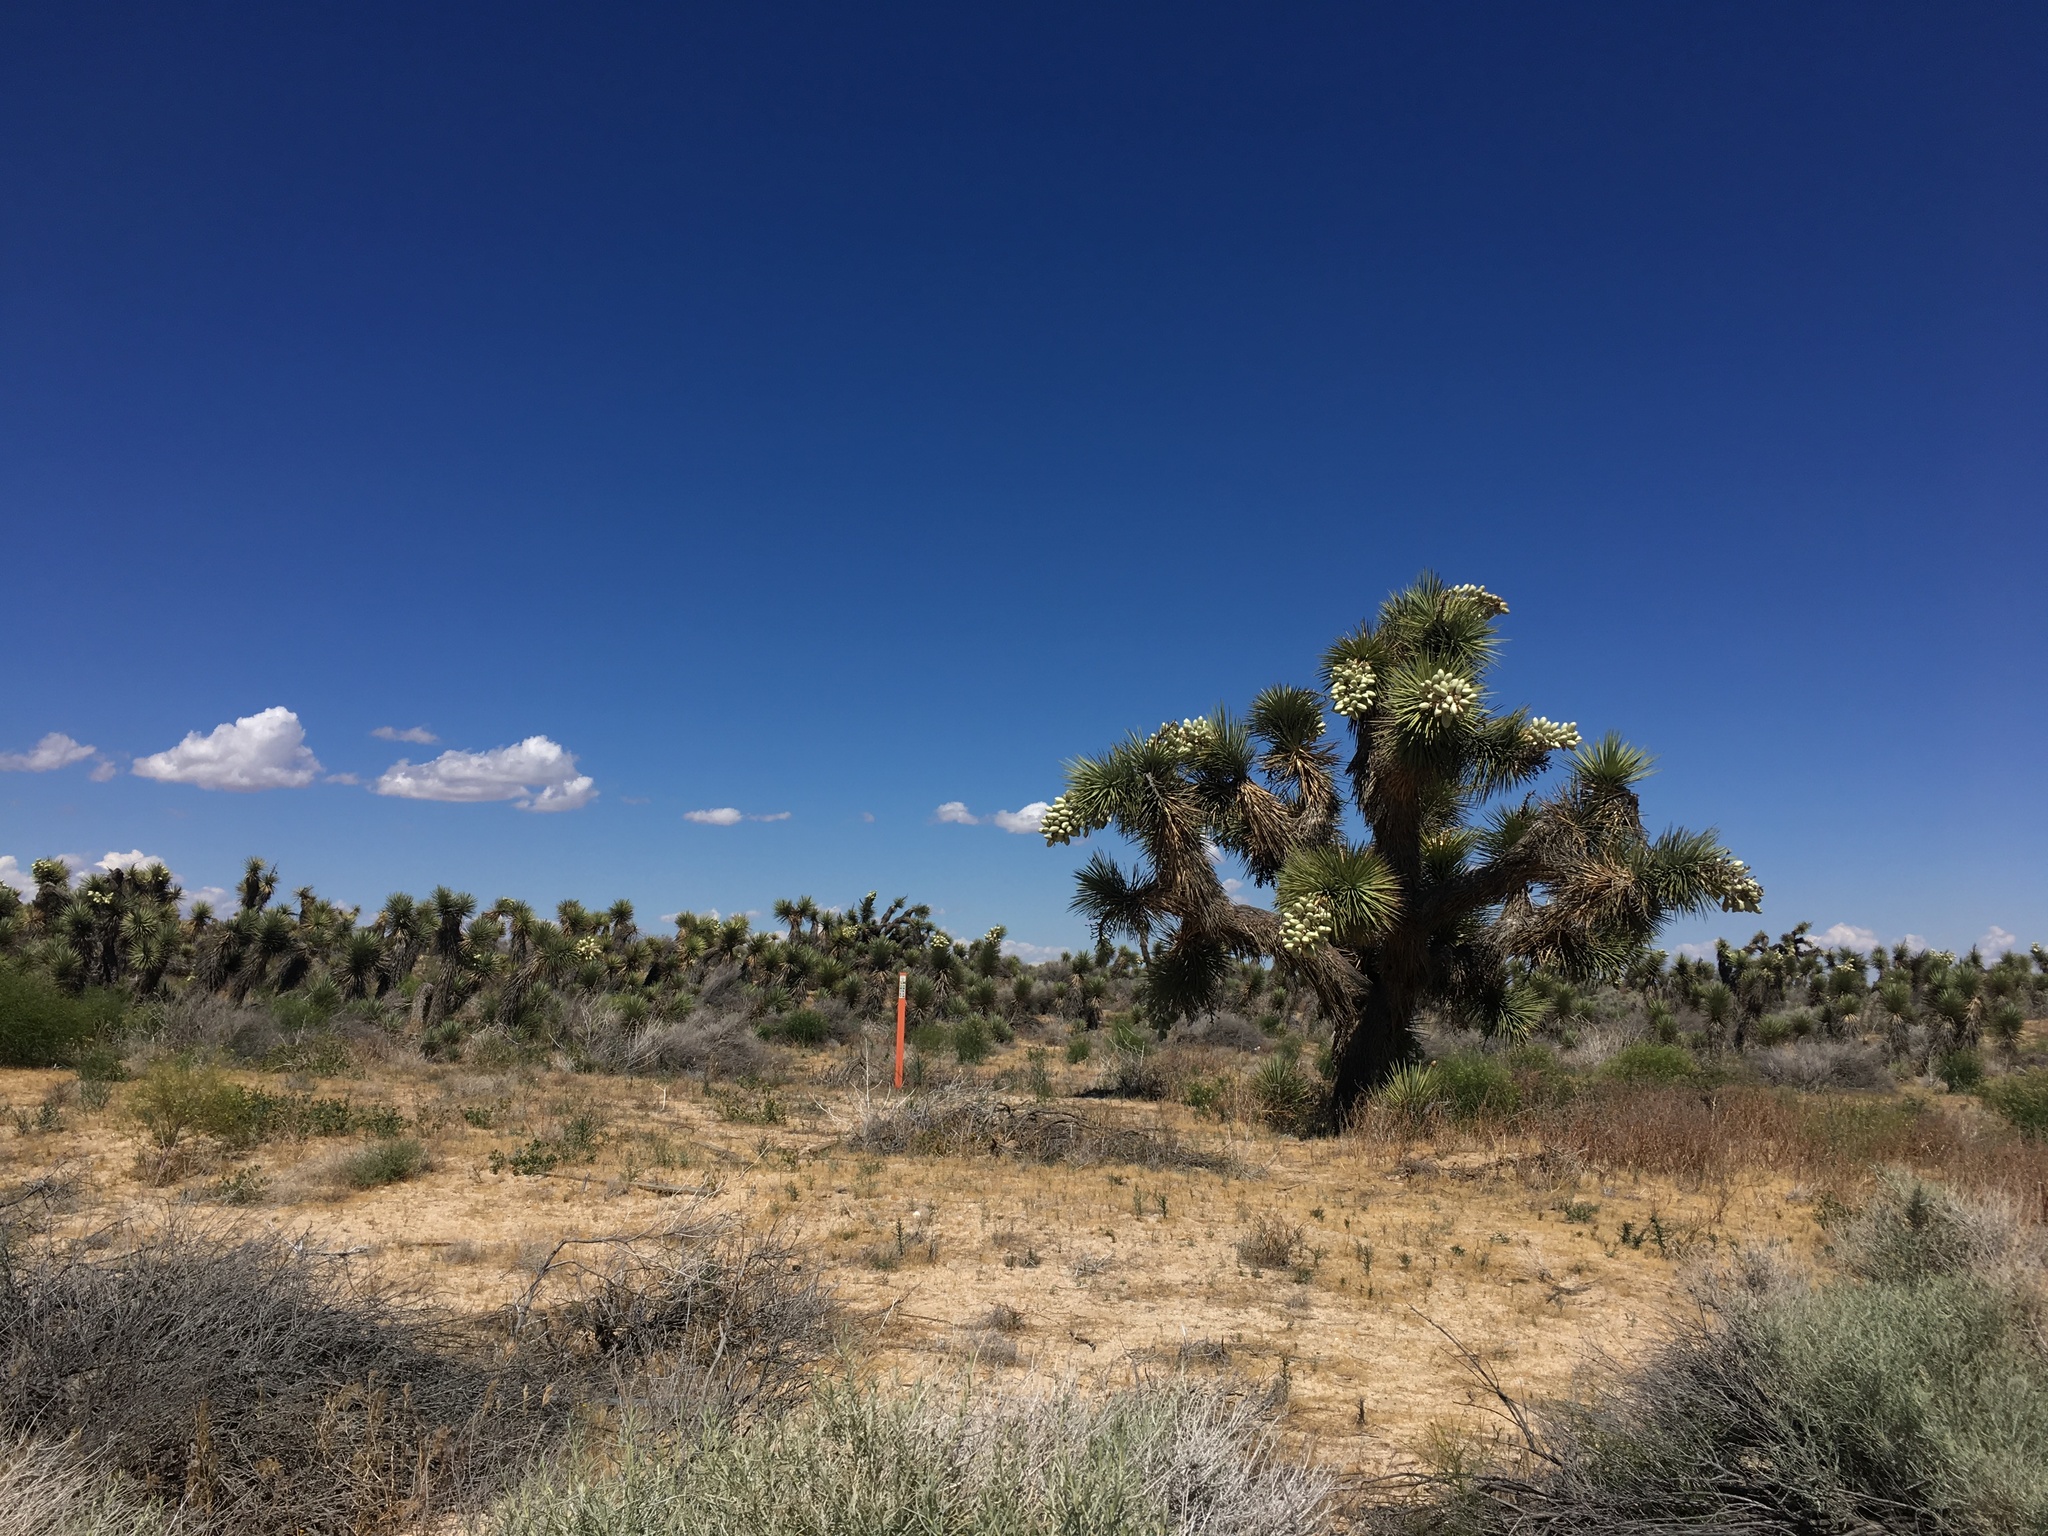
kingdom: Plantae
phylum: Tracheophyta
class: Liliopsida
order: Asparagales
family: Asparagaceae
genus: Yucca
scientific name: Yucca brevifolia
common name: Joshua tree
